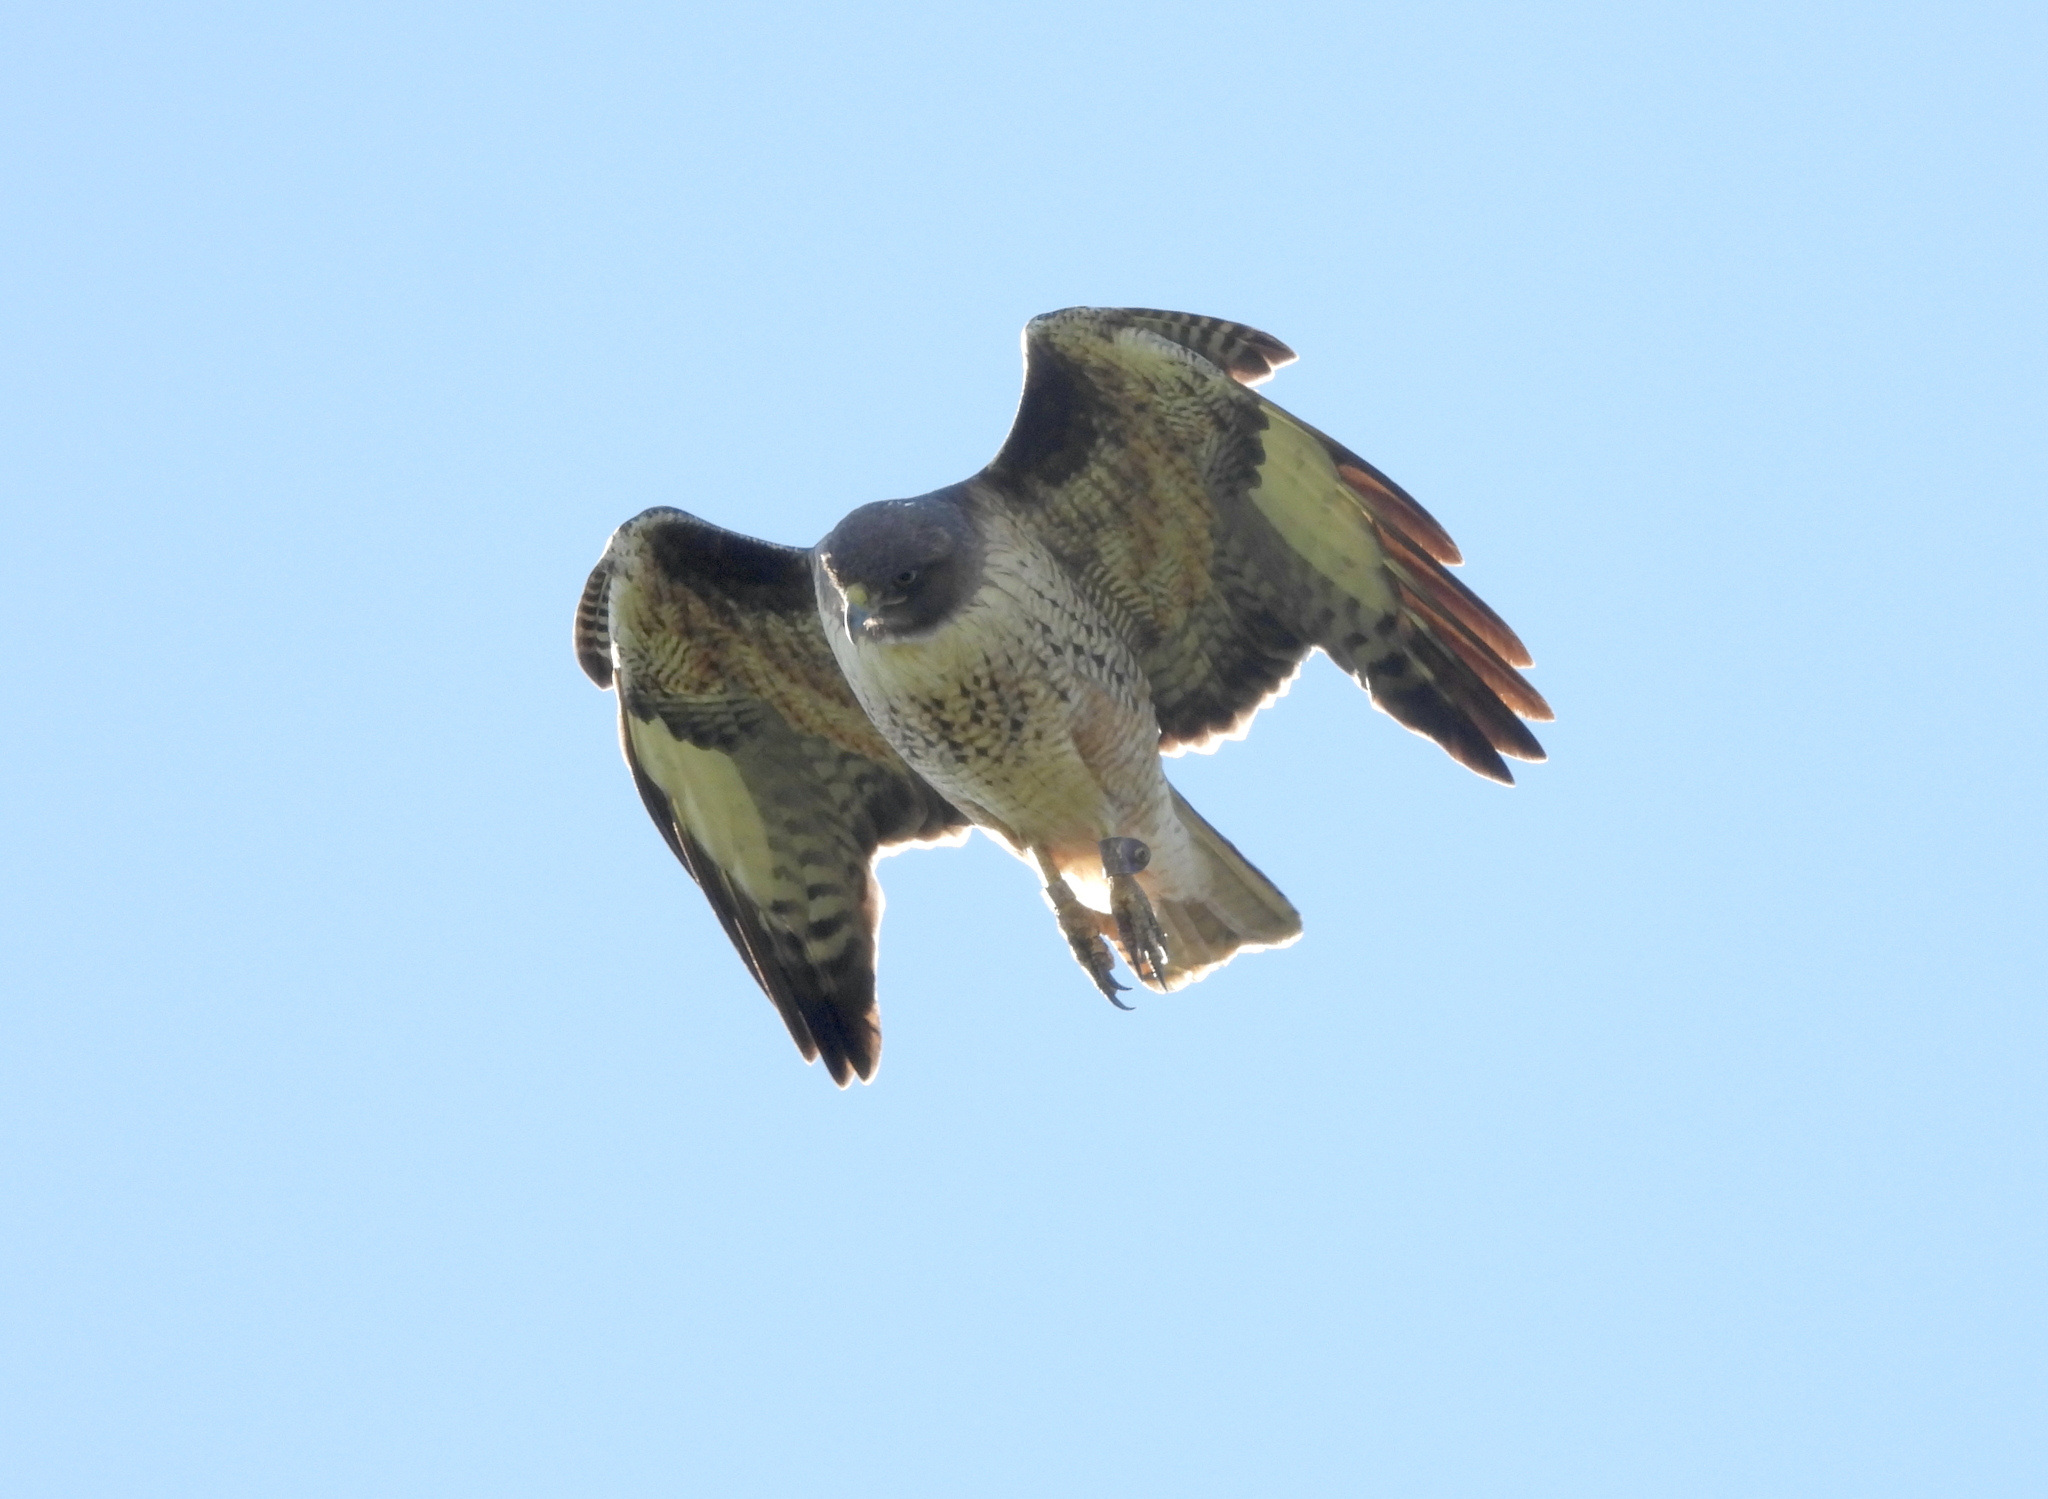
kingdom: Animalia
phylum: Chordata
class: Aves
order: Accipitriformes
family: Accipitridae
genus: Buteo
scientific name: Buteo jamaicensis
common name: Red-tailed hawk
